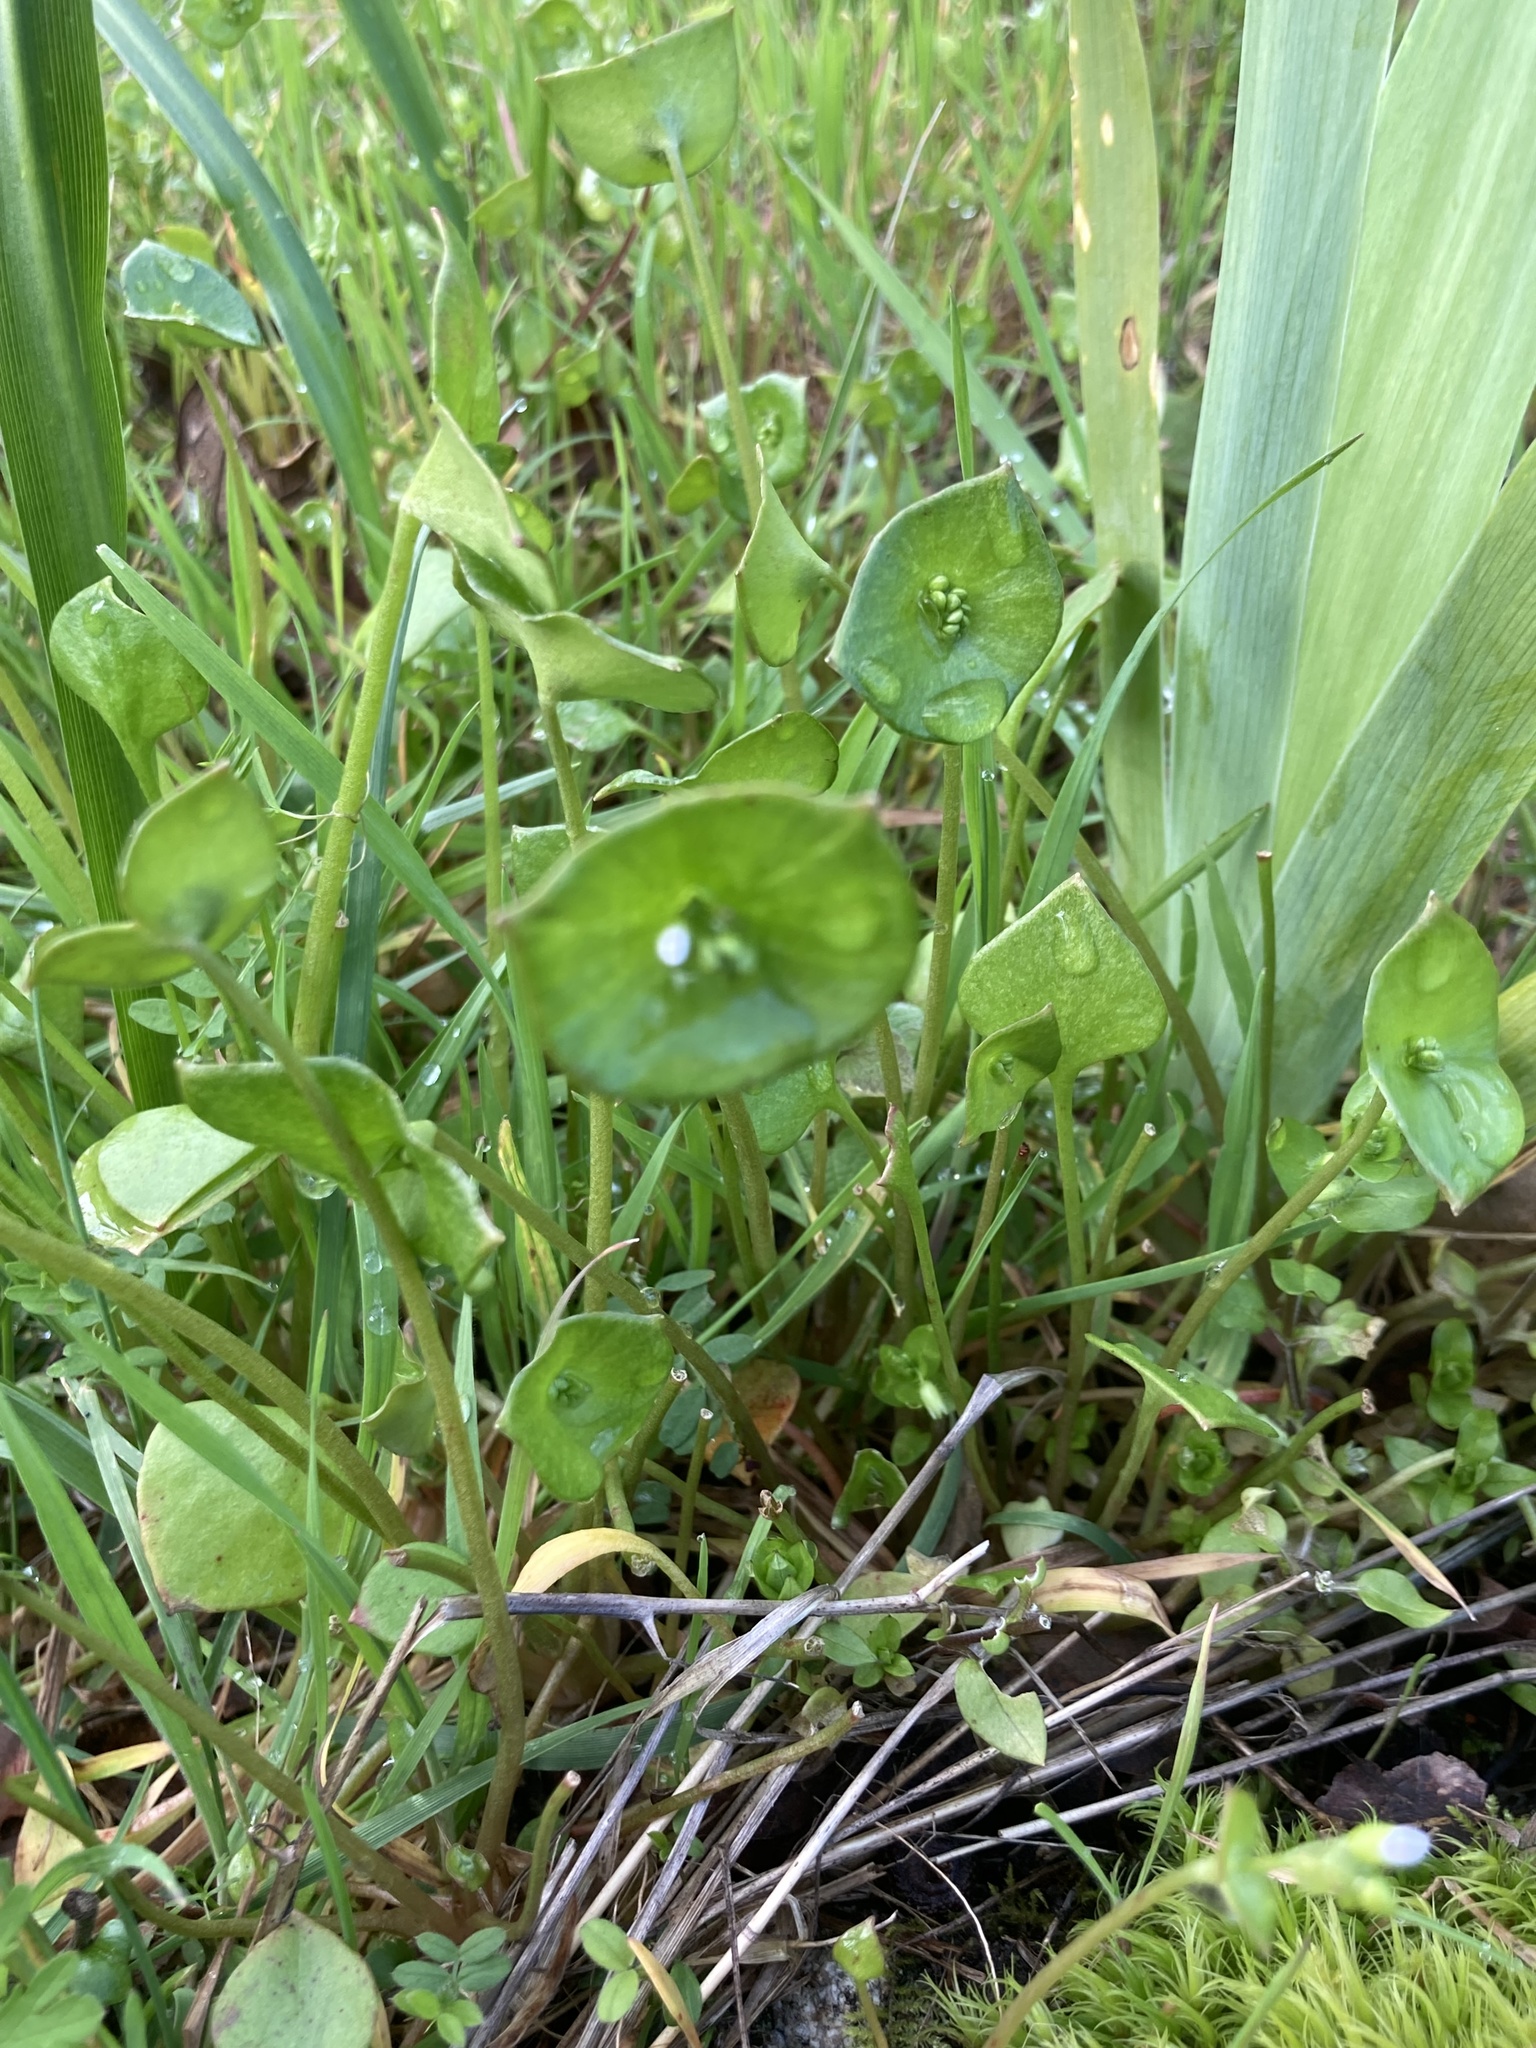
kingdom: Plantae
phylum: Tracheophyta
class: Magnoliopsida
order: Caryophyllales
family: Montiaceae
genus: Claytonia
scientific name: Claytonia perfoliata
